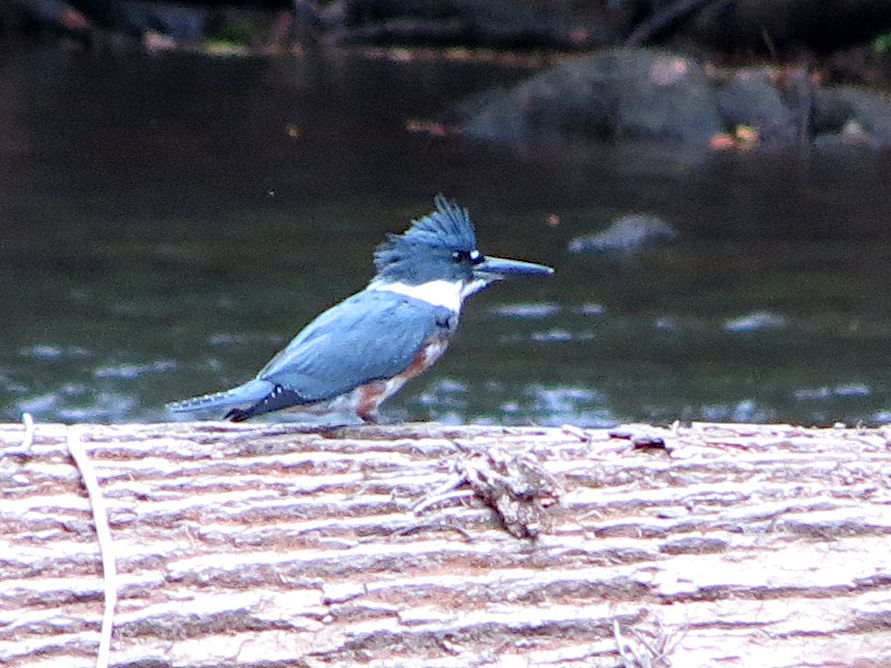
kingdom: Animalia
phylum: Chordata
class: Aves
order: Coraciiformes
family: Alcedinidae
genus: Megaceryle
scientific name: Megaceryle alcyon
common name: Belted kingfisher
